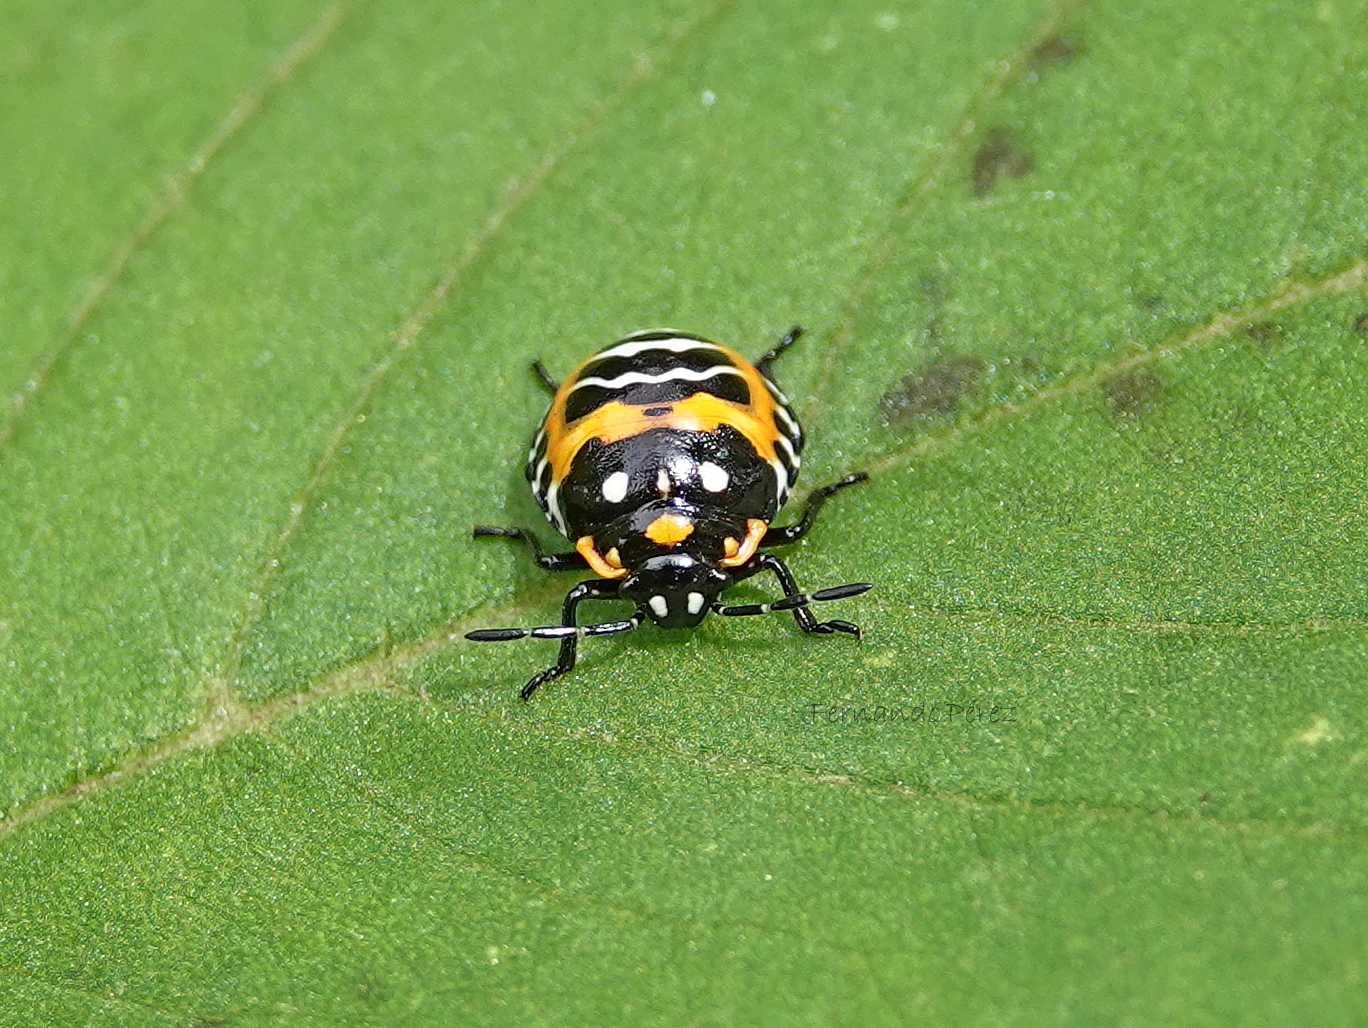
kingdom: Animalia
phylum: Arthropoda
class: Insecta
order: Hemiptera
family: Pentatomidae
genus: Murgantia
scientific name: Murgantia histrionica
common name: Harlequin bug
